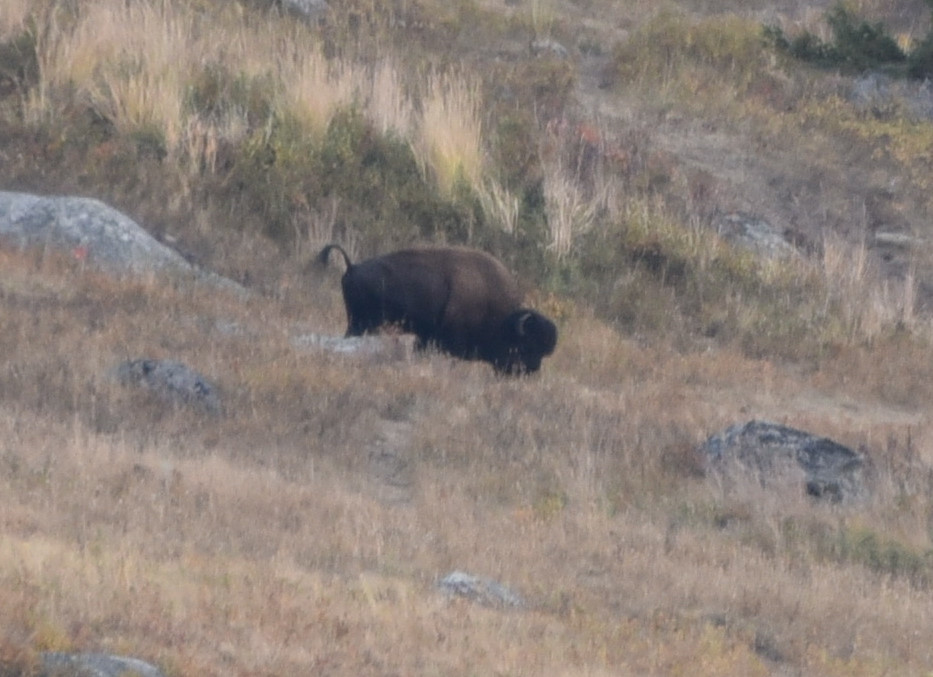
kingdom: Animalia
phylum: Chordata
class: Mammalia
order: Artiodactyla
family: Bovidae
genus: Bison
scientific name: Bison bison
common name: American bison
